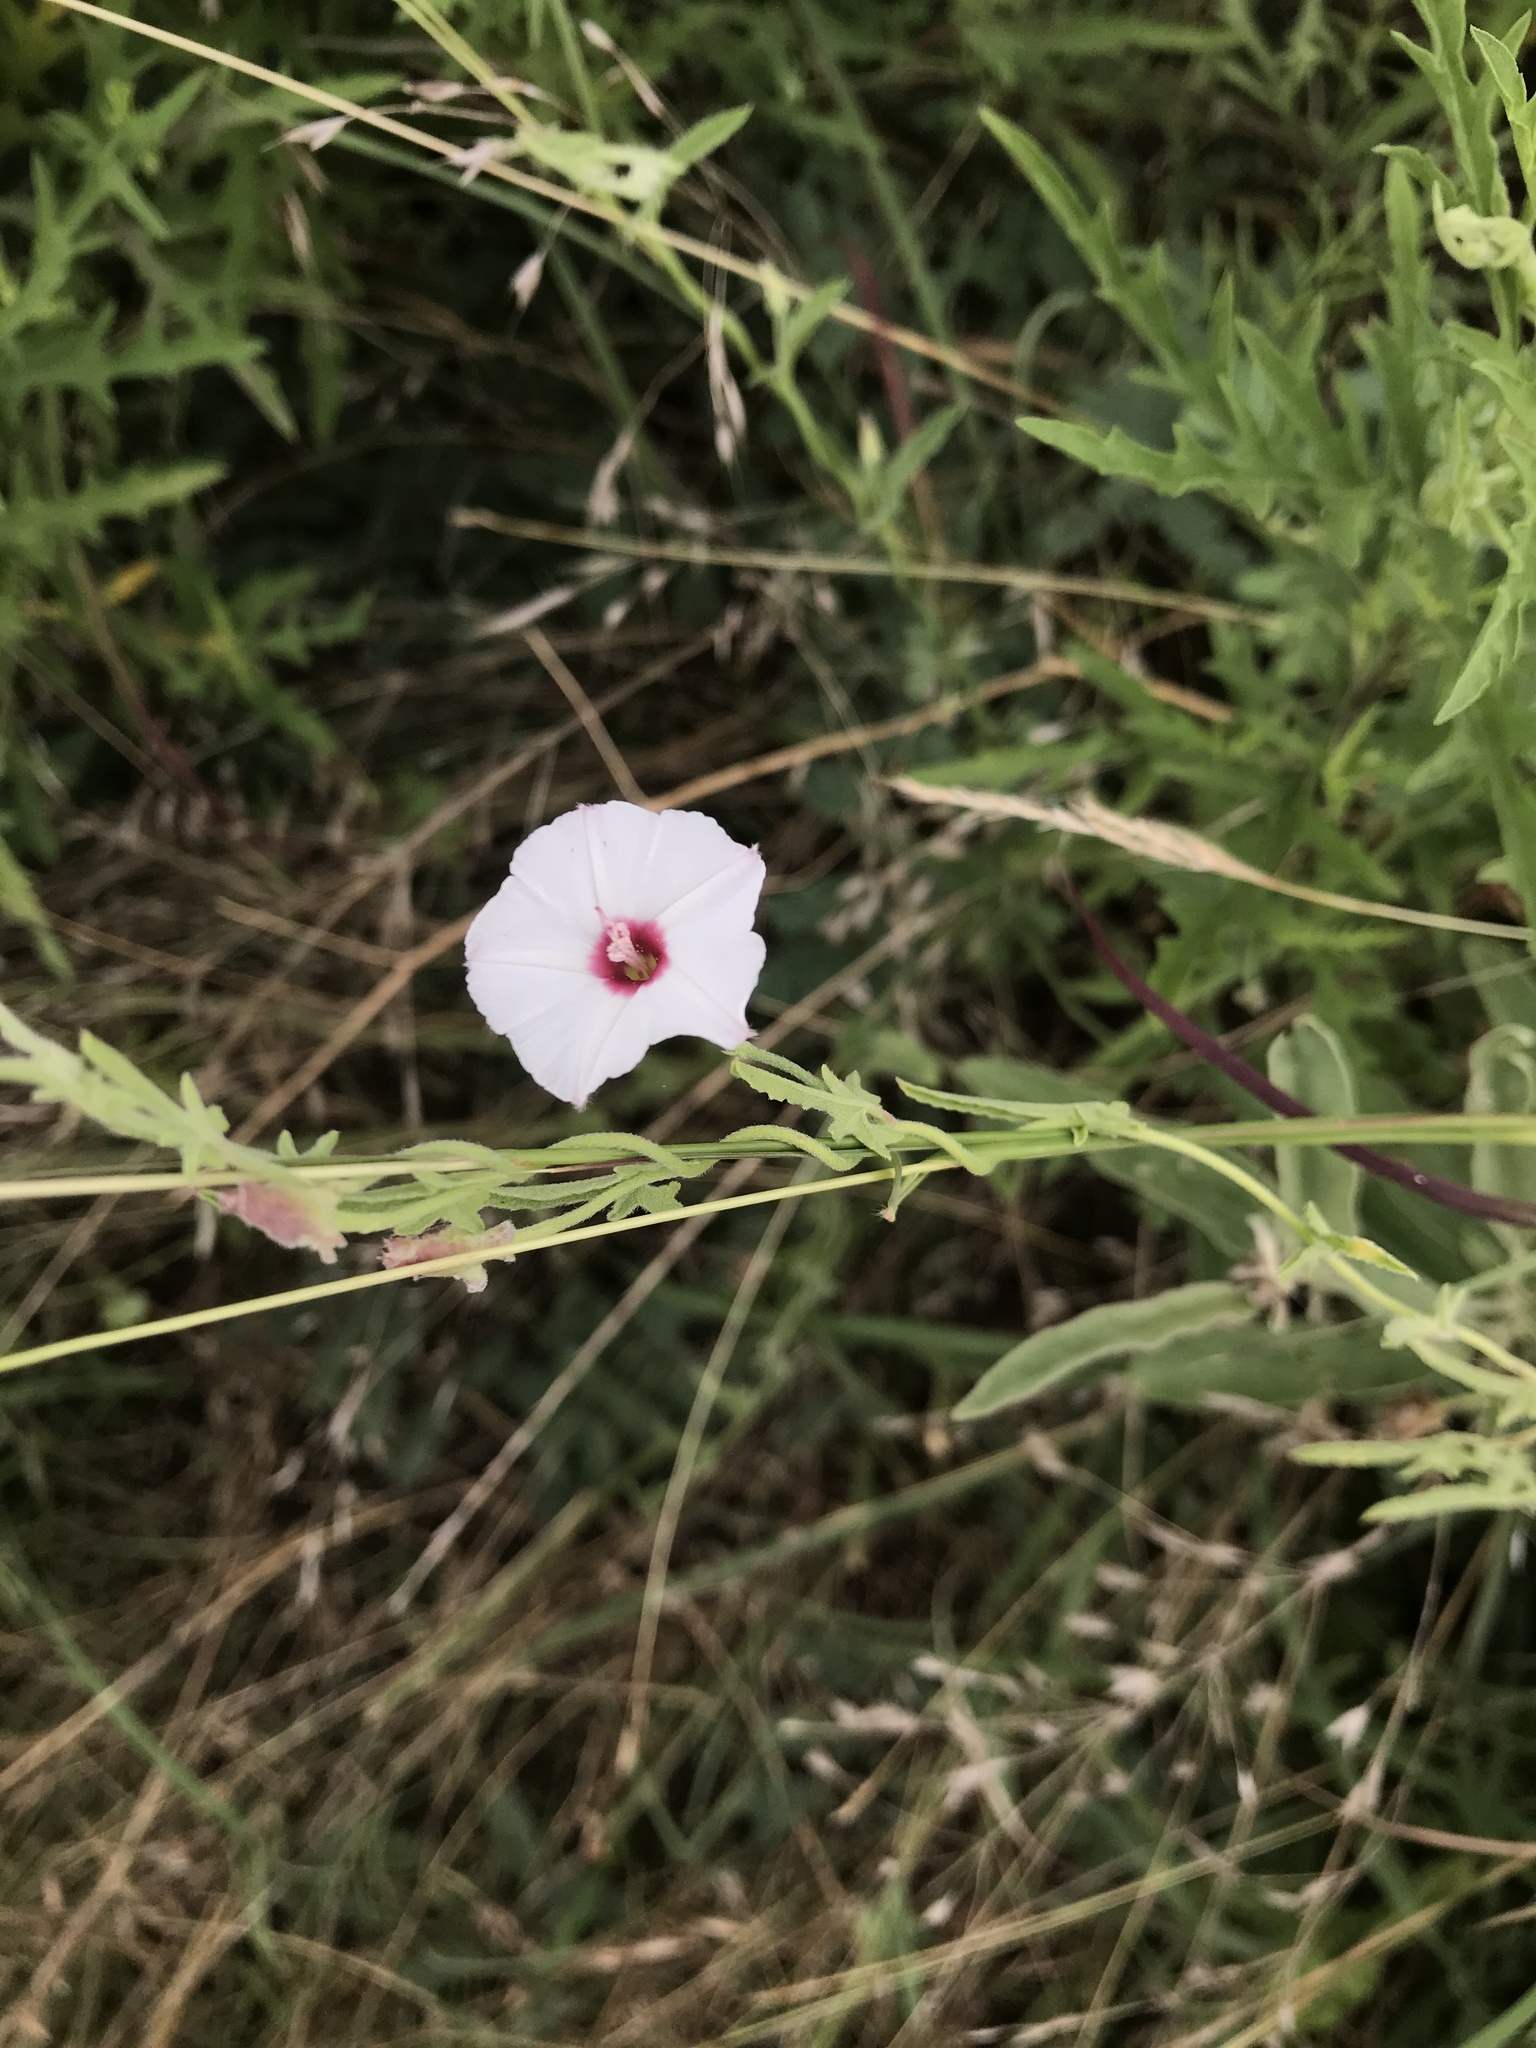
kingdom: Plantae
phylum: Tracheophyta
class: Magnoliopsida
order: Solanales
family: Convolvulaceae
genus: Convolvulus
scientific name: Convolvulus equitans
